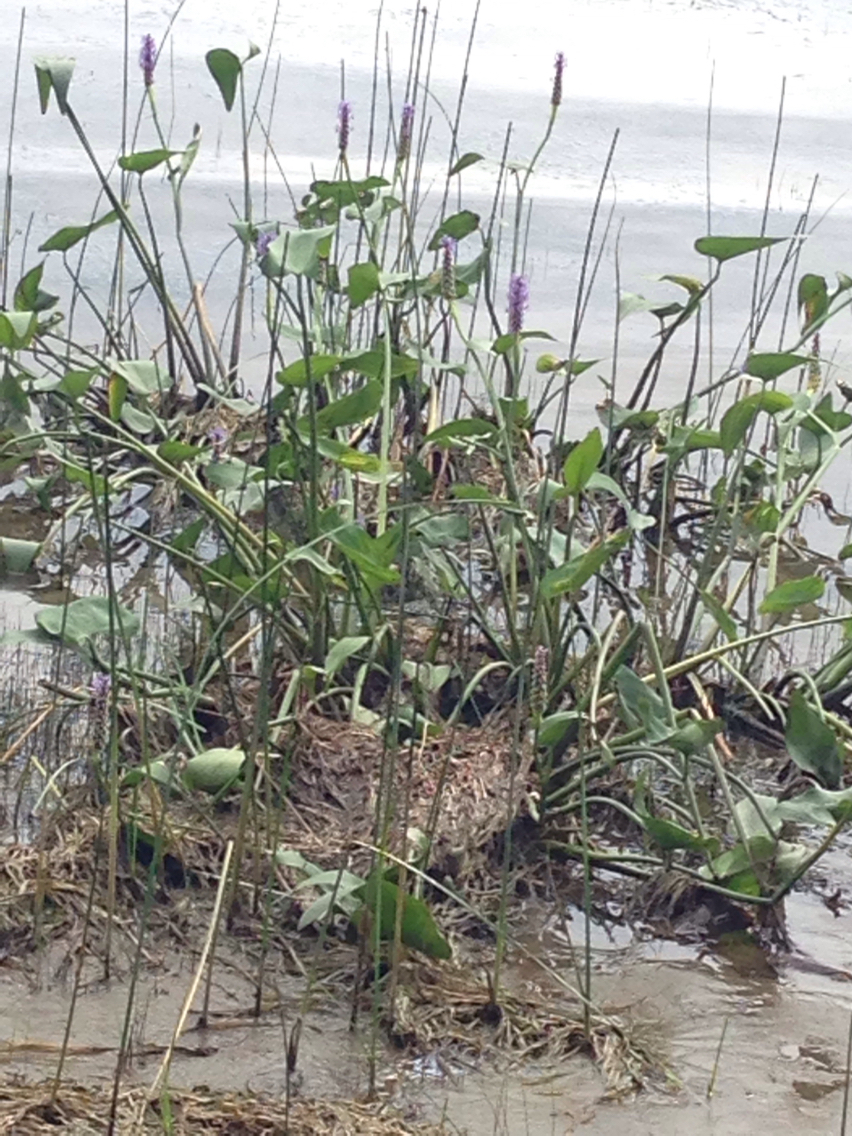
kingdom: Plantae
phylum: Tracheophyta
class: Liliopsida
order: Commelinales
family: Pontederiaceae
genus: Pontederia
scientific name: Pontederia cordata
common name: Pickerelweed
